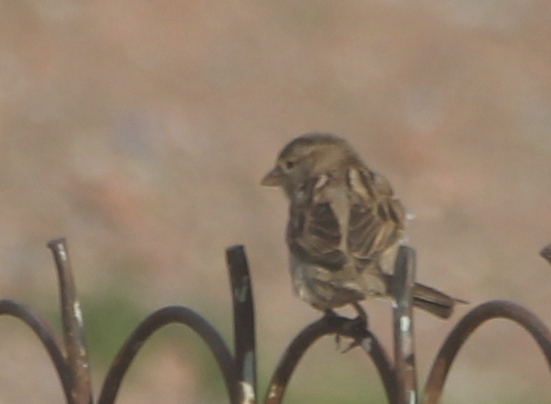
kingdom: Animalia
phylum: Chordata
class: Aves
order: Passeriformes
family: Passeridae
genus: Passer
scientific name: Passer domesticus
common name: House sparrow
